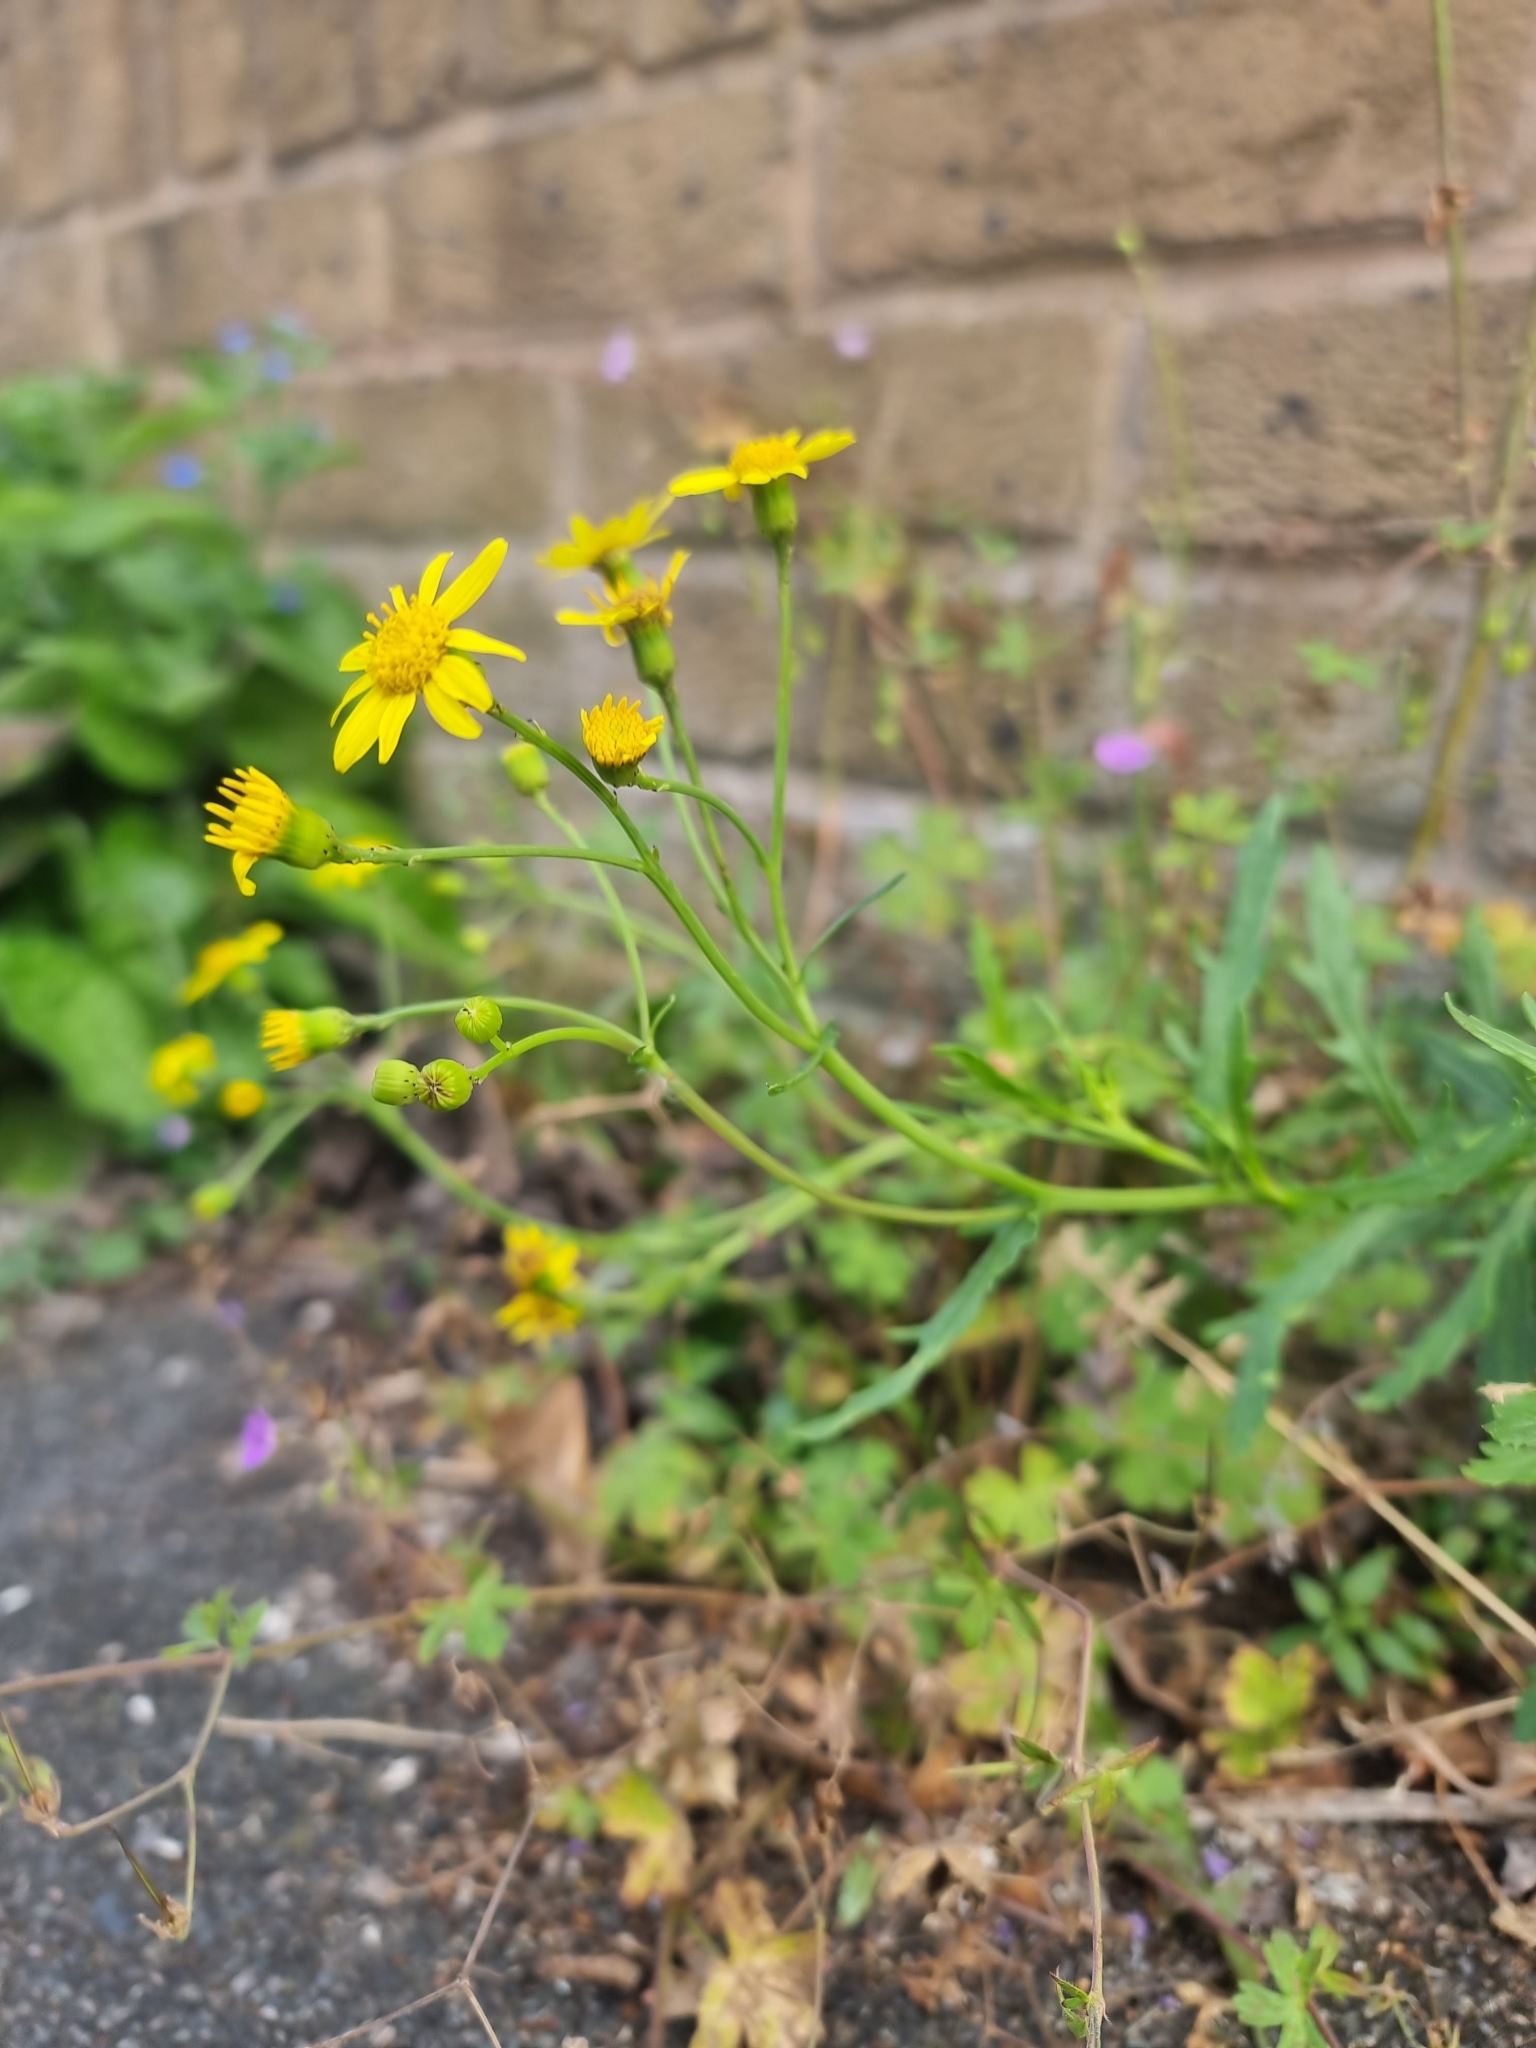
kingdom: Plantae
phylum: Tracheophyta
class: Magnoliopsida
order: Asterales
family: Asteraceae
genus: Senecio
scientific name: Senecio squalidus
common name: Oxford ragwort
